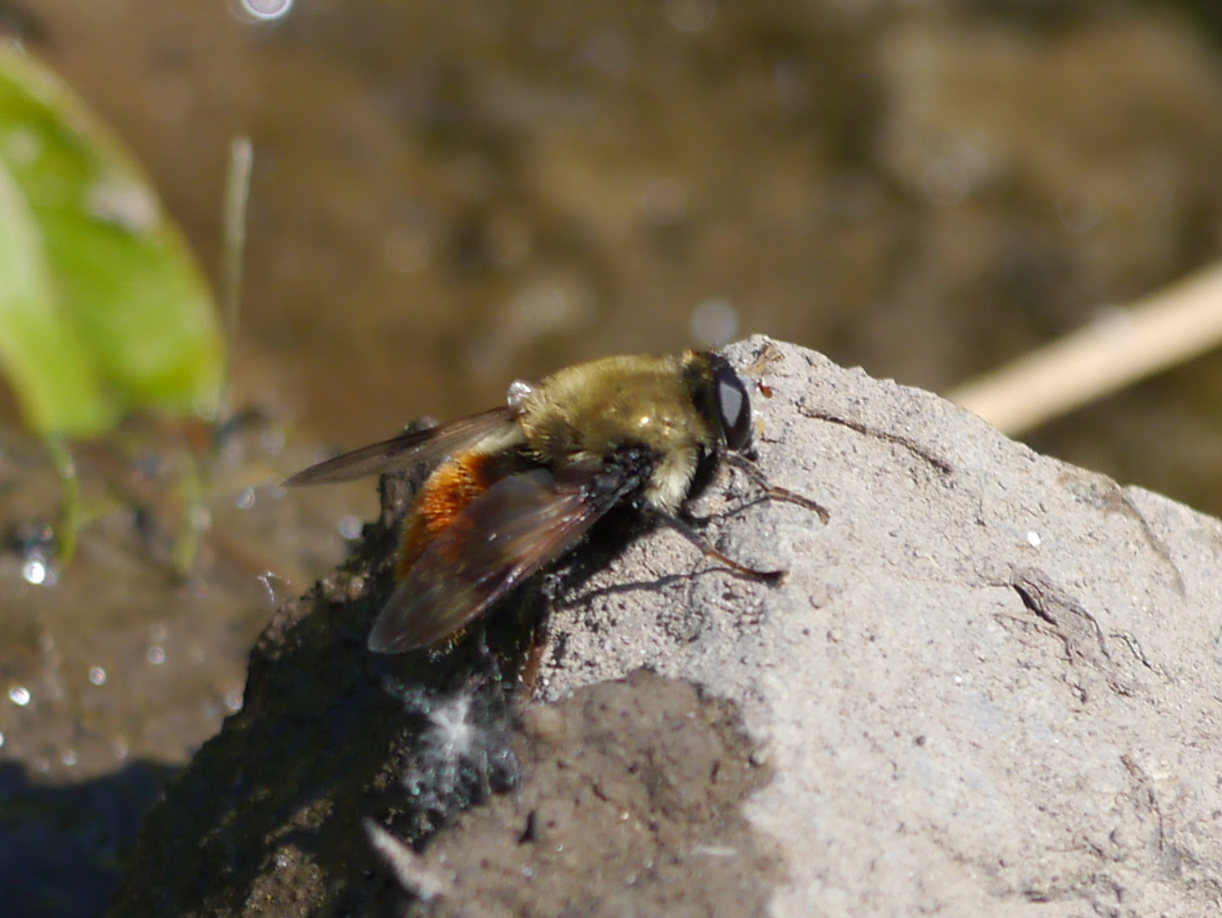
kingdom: Animalia
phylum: Arthropoda
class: Insecta
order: Diptera
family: Syrphidae
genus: Sericomyia
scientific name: Sericomyia flagrans
